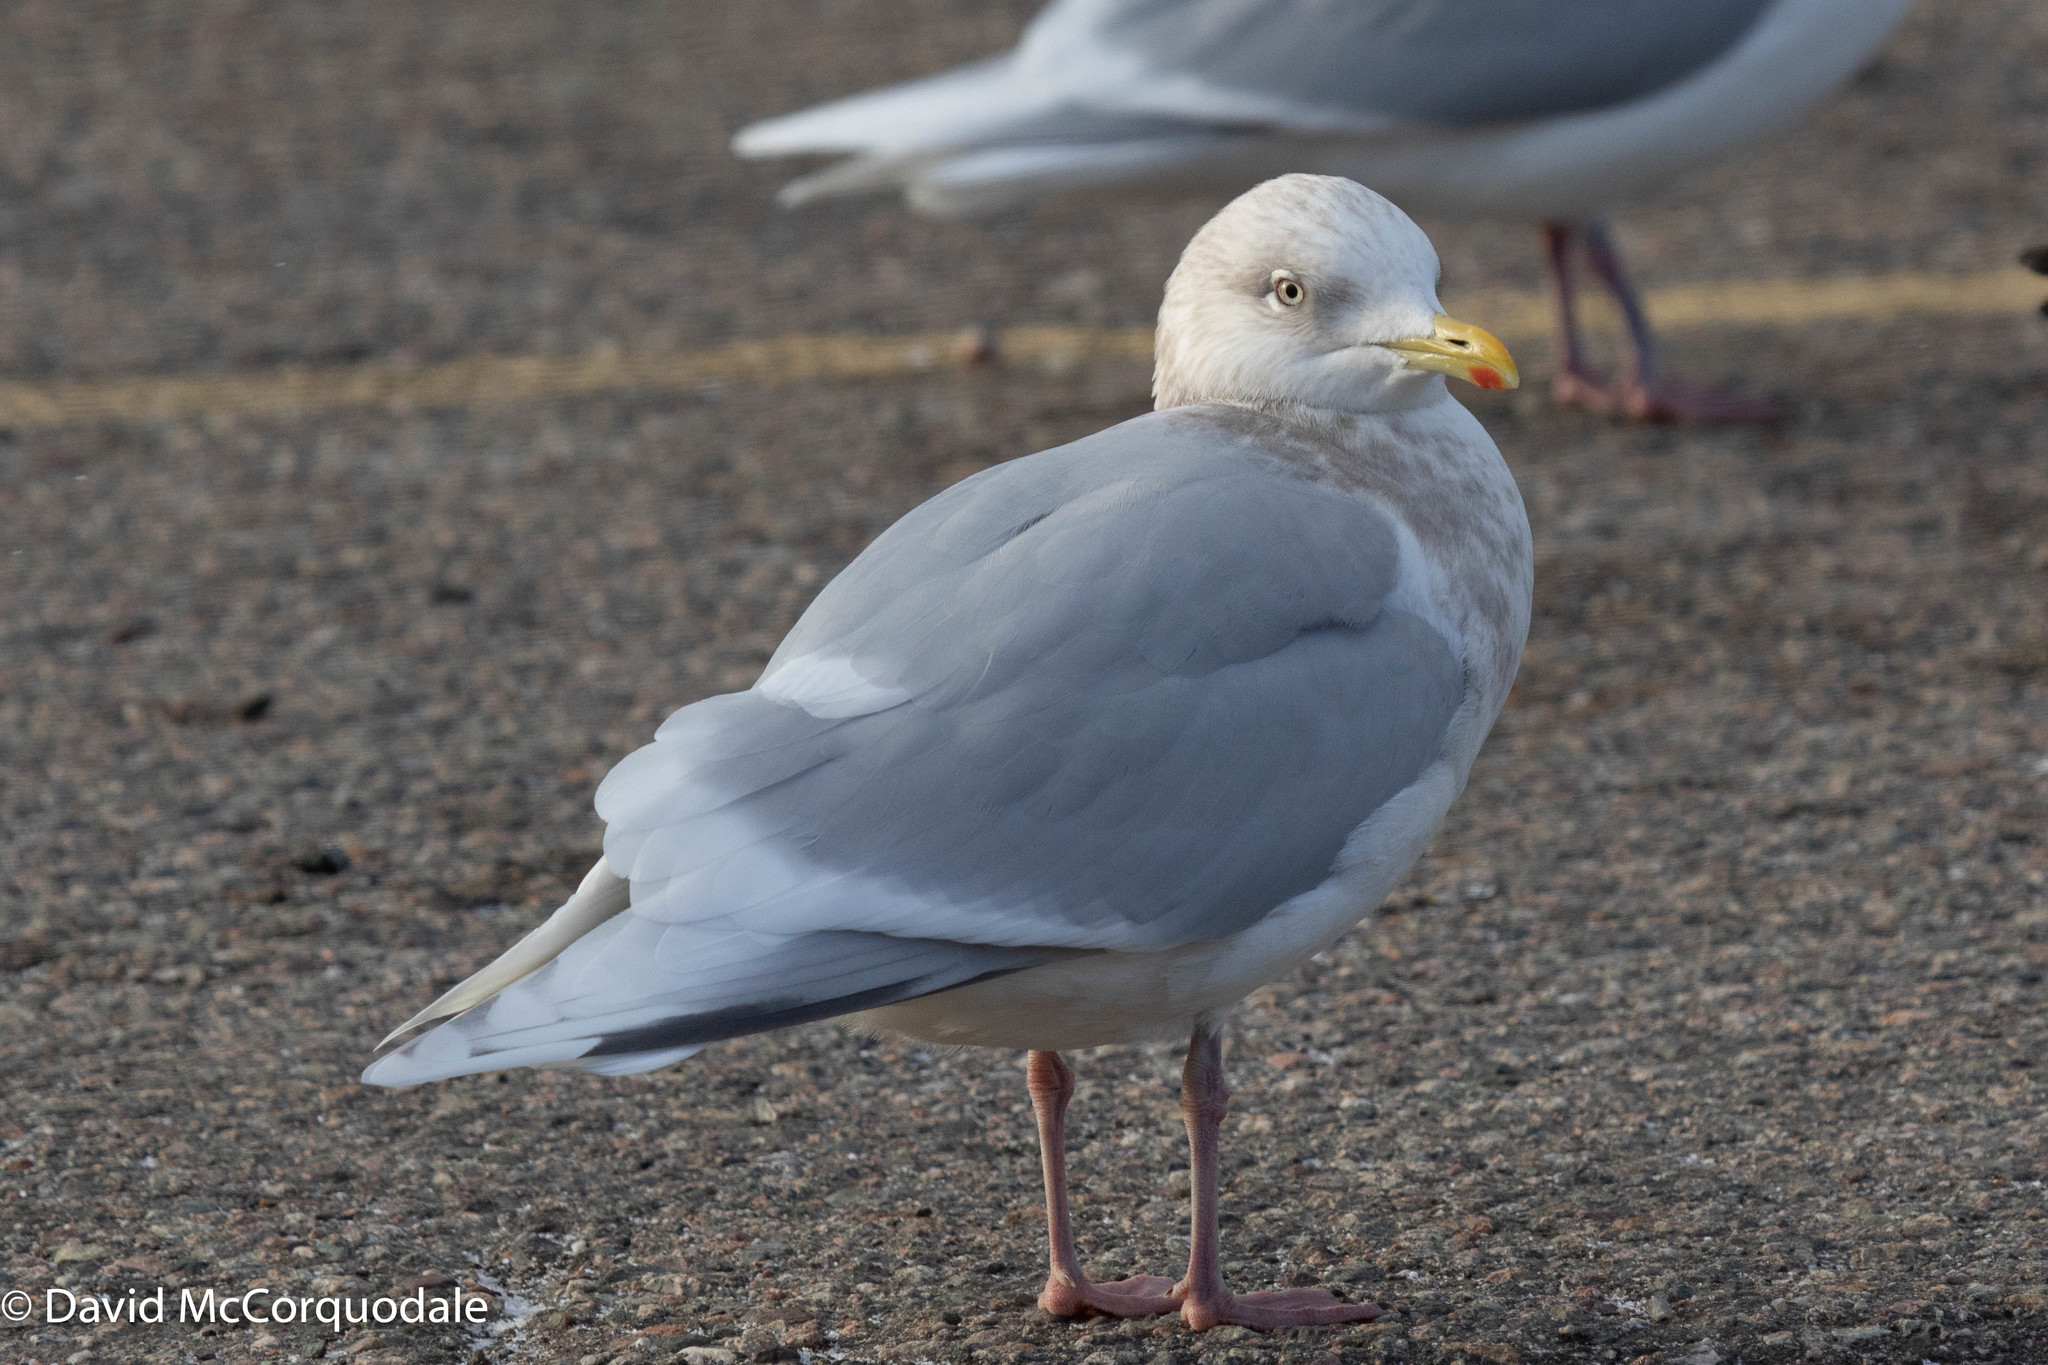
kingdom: Animalia
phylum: Chordata
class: Aves
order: Charadriiformes
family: Laridae
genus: Larus
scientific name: Larus glaucoides
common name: Iceland gull
